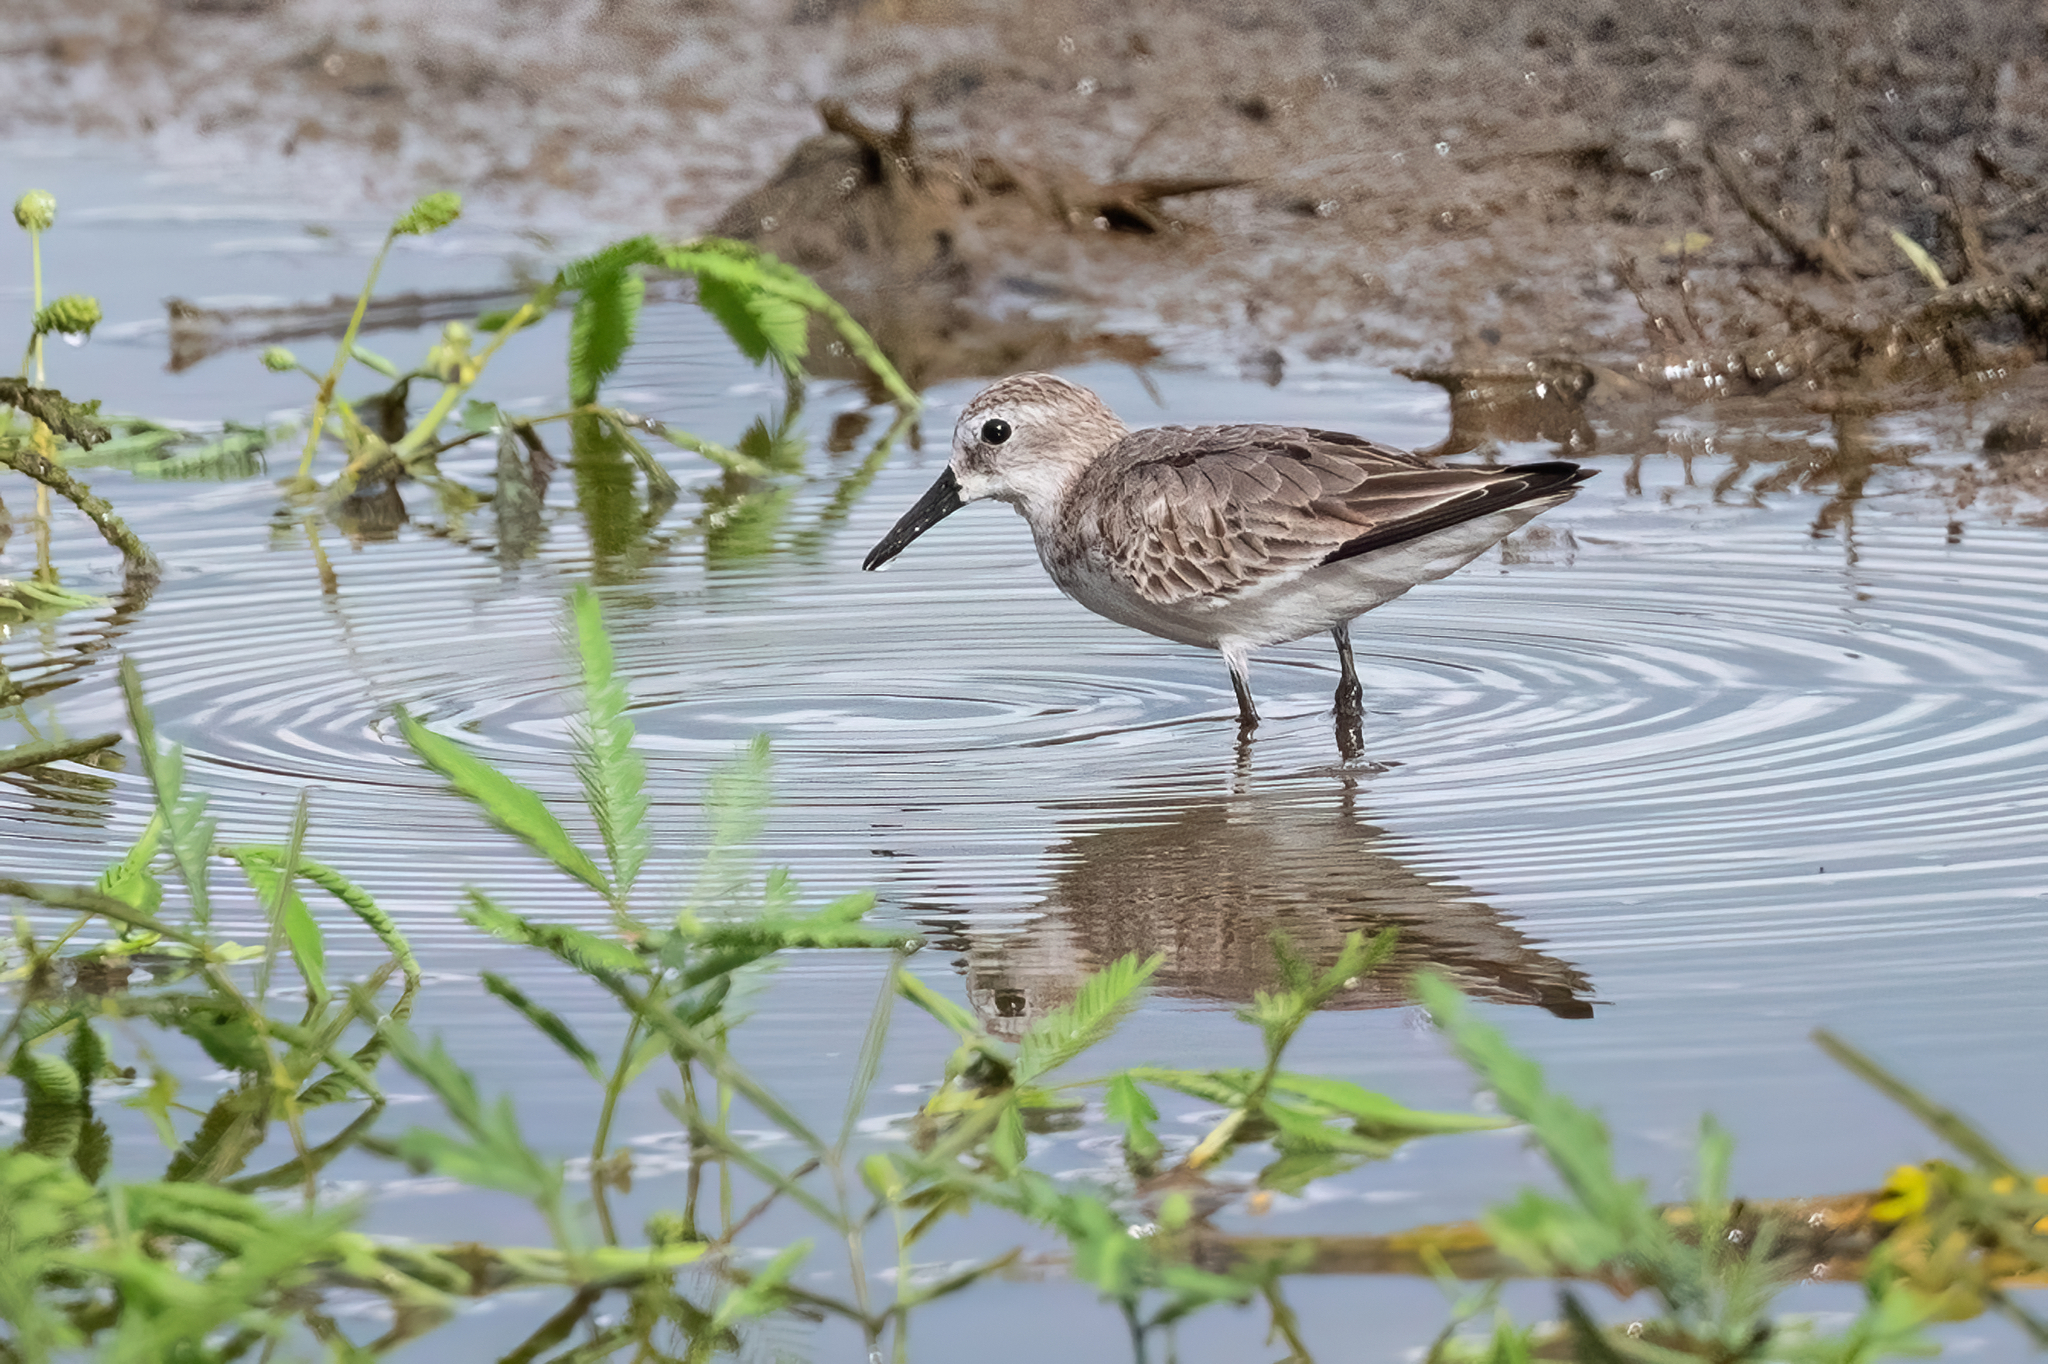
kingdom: Animalia
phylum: Chordata
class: Aves
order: Charadriiformes
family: Scolopacidae
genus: Calidris
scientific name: Calidris mauri
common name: Western sandpiper
